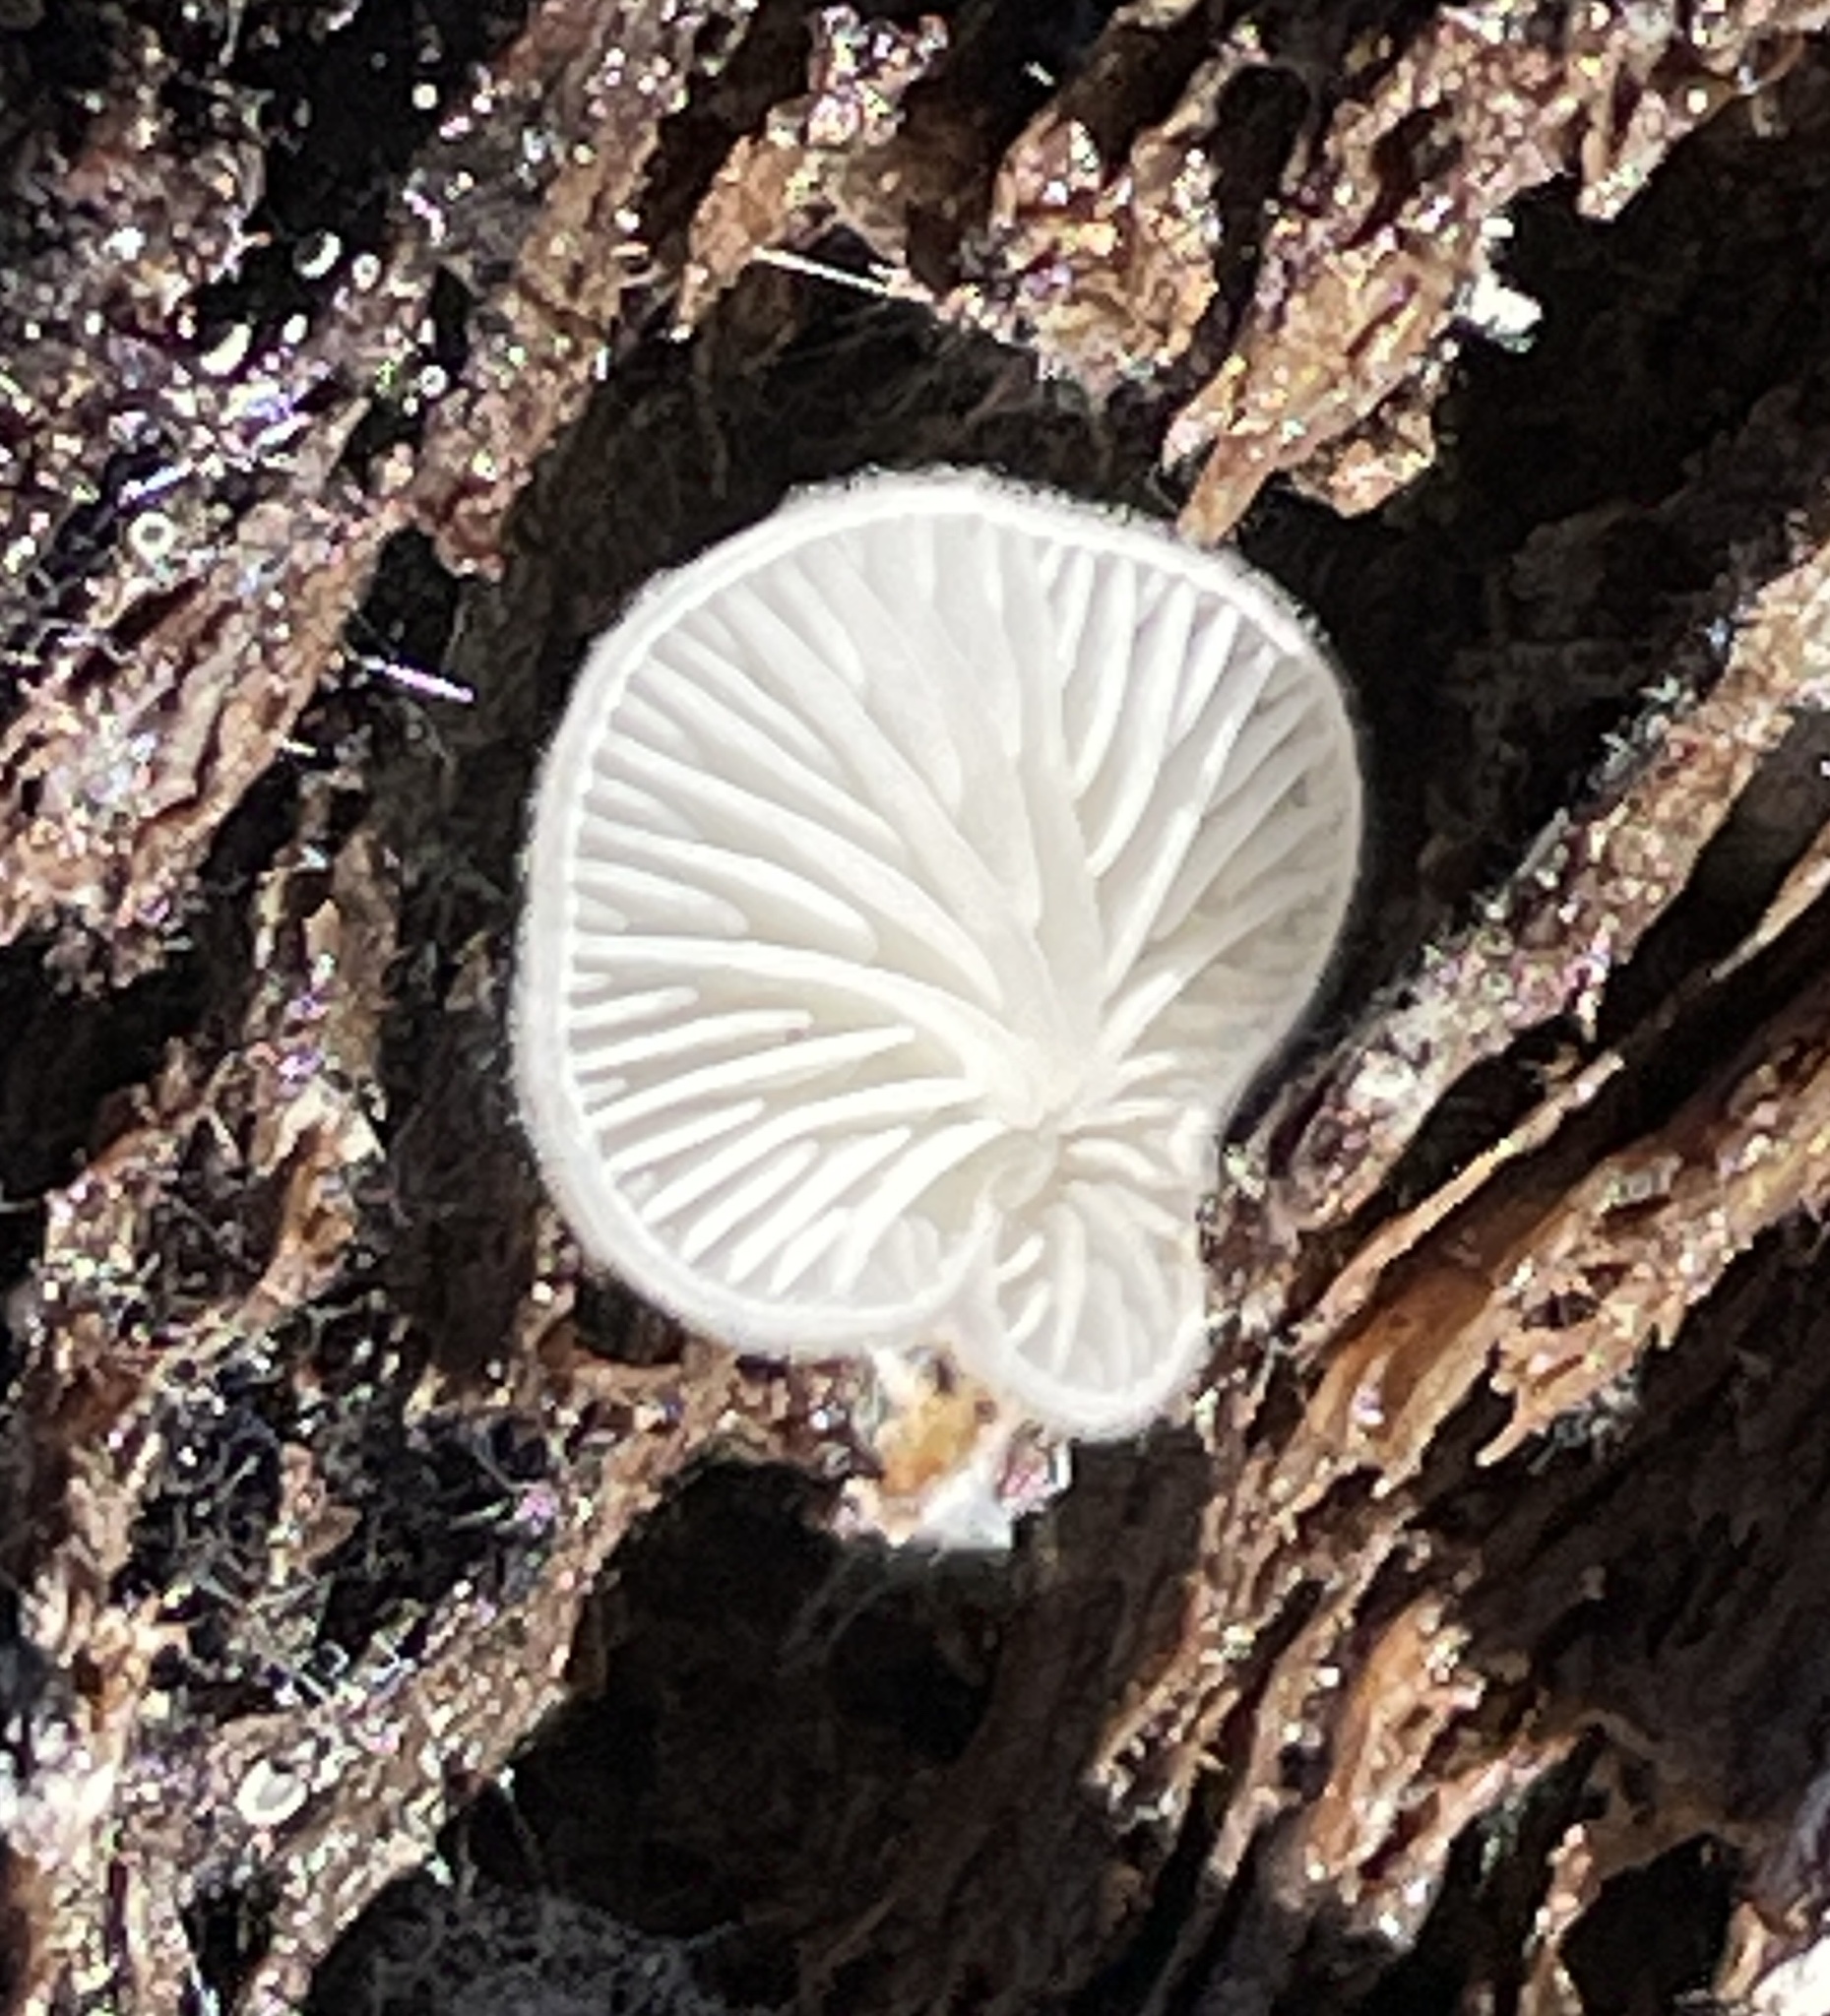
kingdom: Fungi
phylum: Basidiomycota
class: Agaricomycetes
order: Agaricales
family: Entolomataceae
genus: Clitopilus
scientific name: Clitopilus hobsonii
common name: Miller's oysterling
